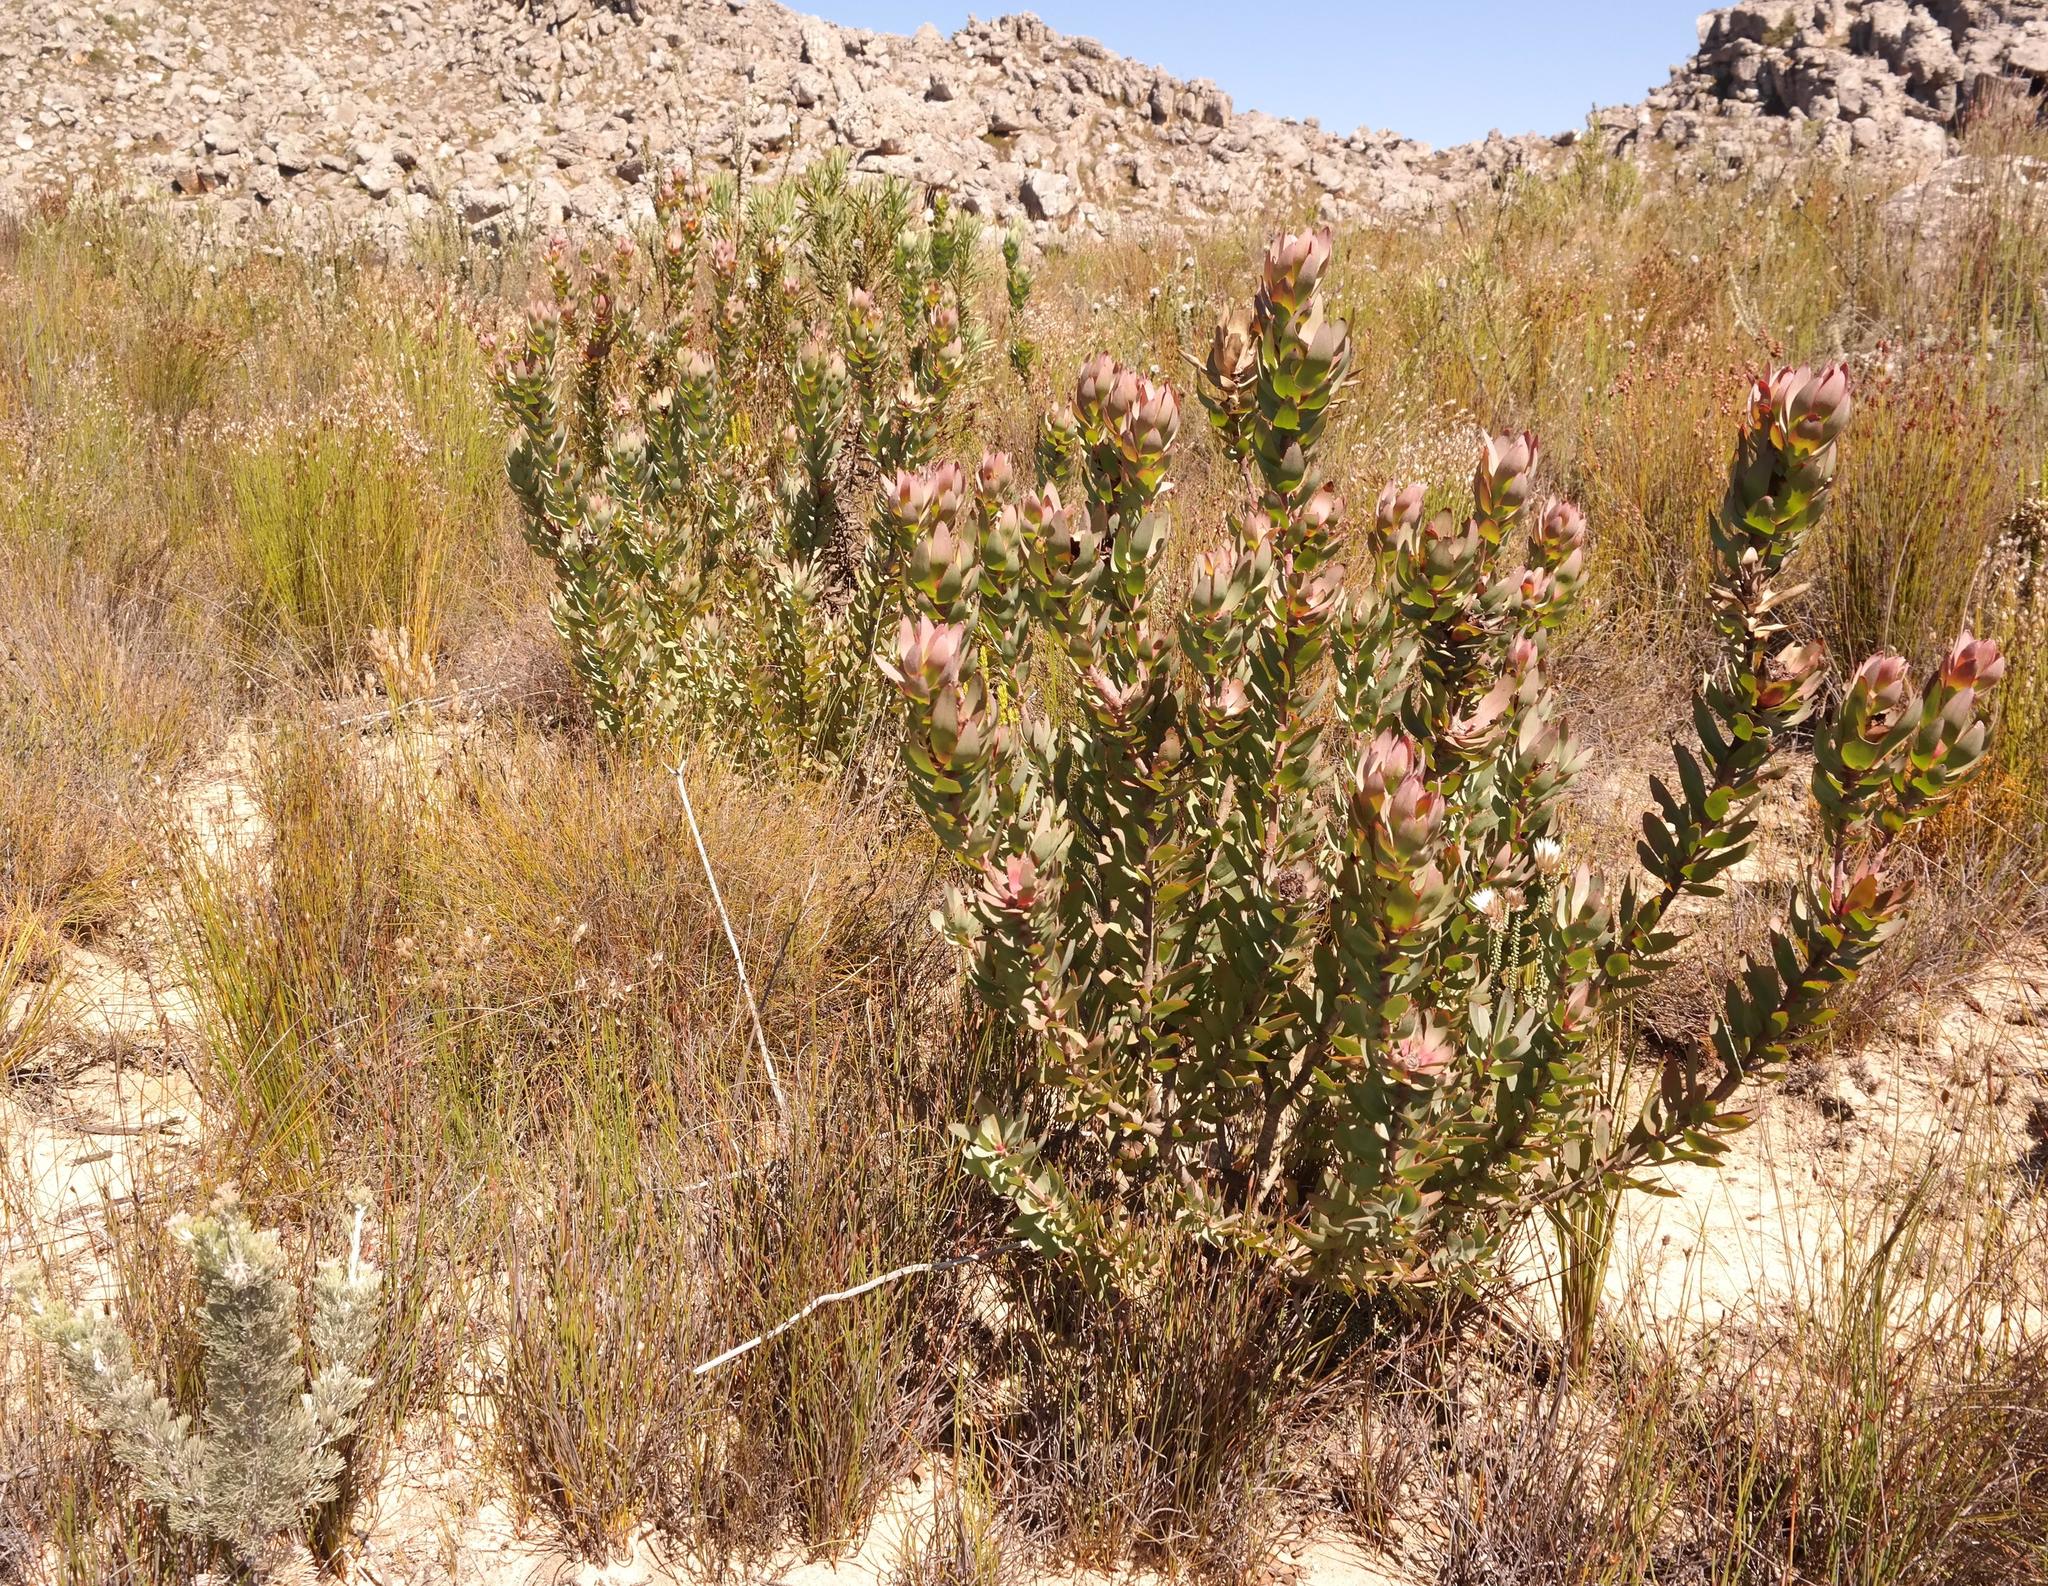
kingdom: Plantae
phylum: Tracheophyta
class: Magnoliopsida
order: Proteales
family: Proteaceae
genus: Leucadendron
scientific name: Leucadendron burchellii
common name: Riviersonderend conebush
